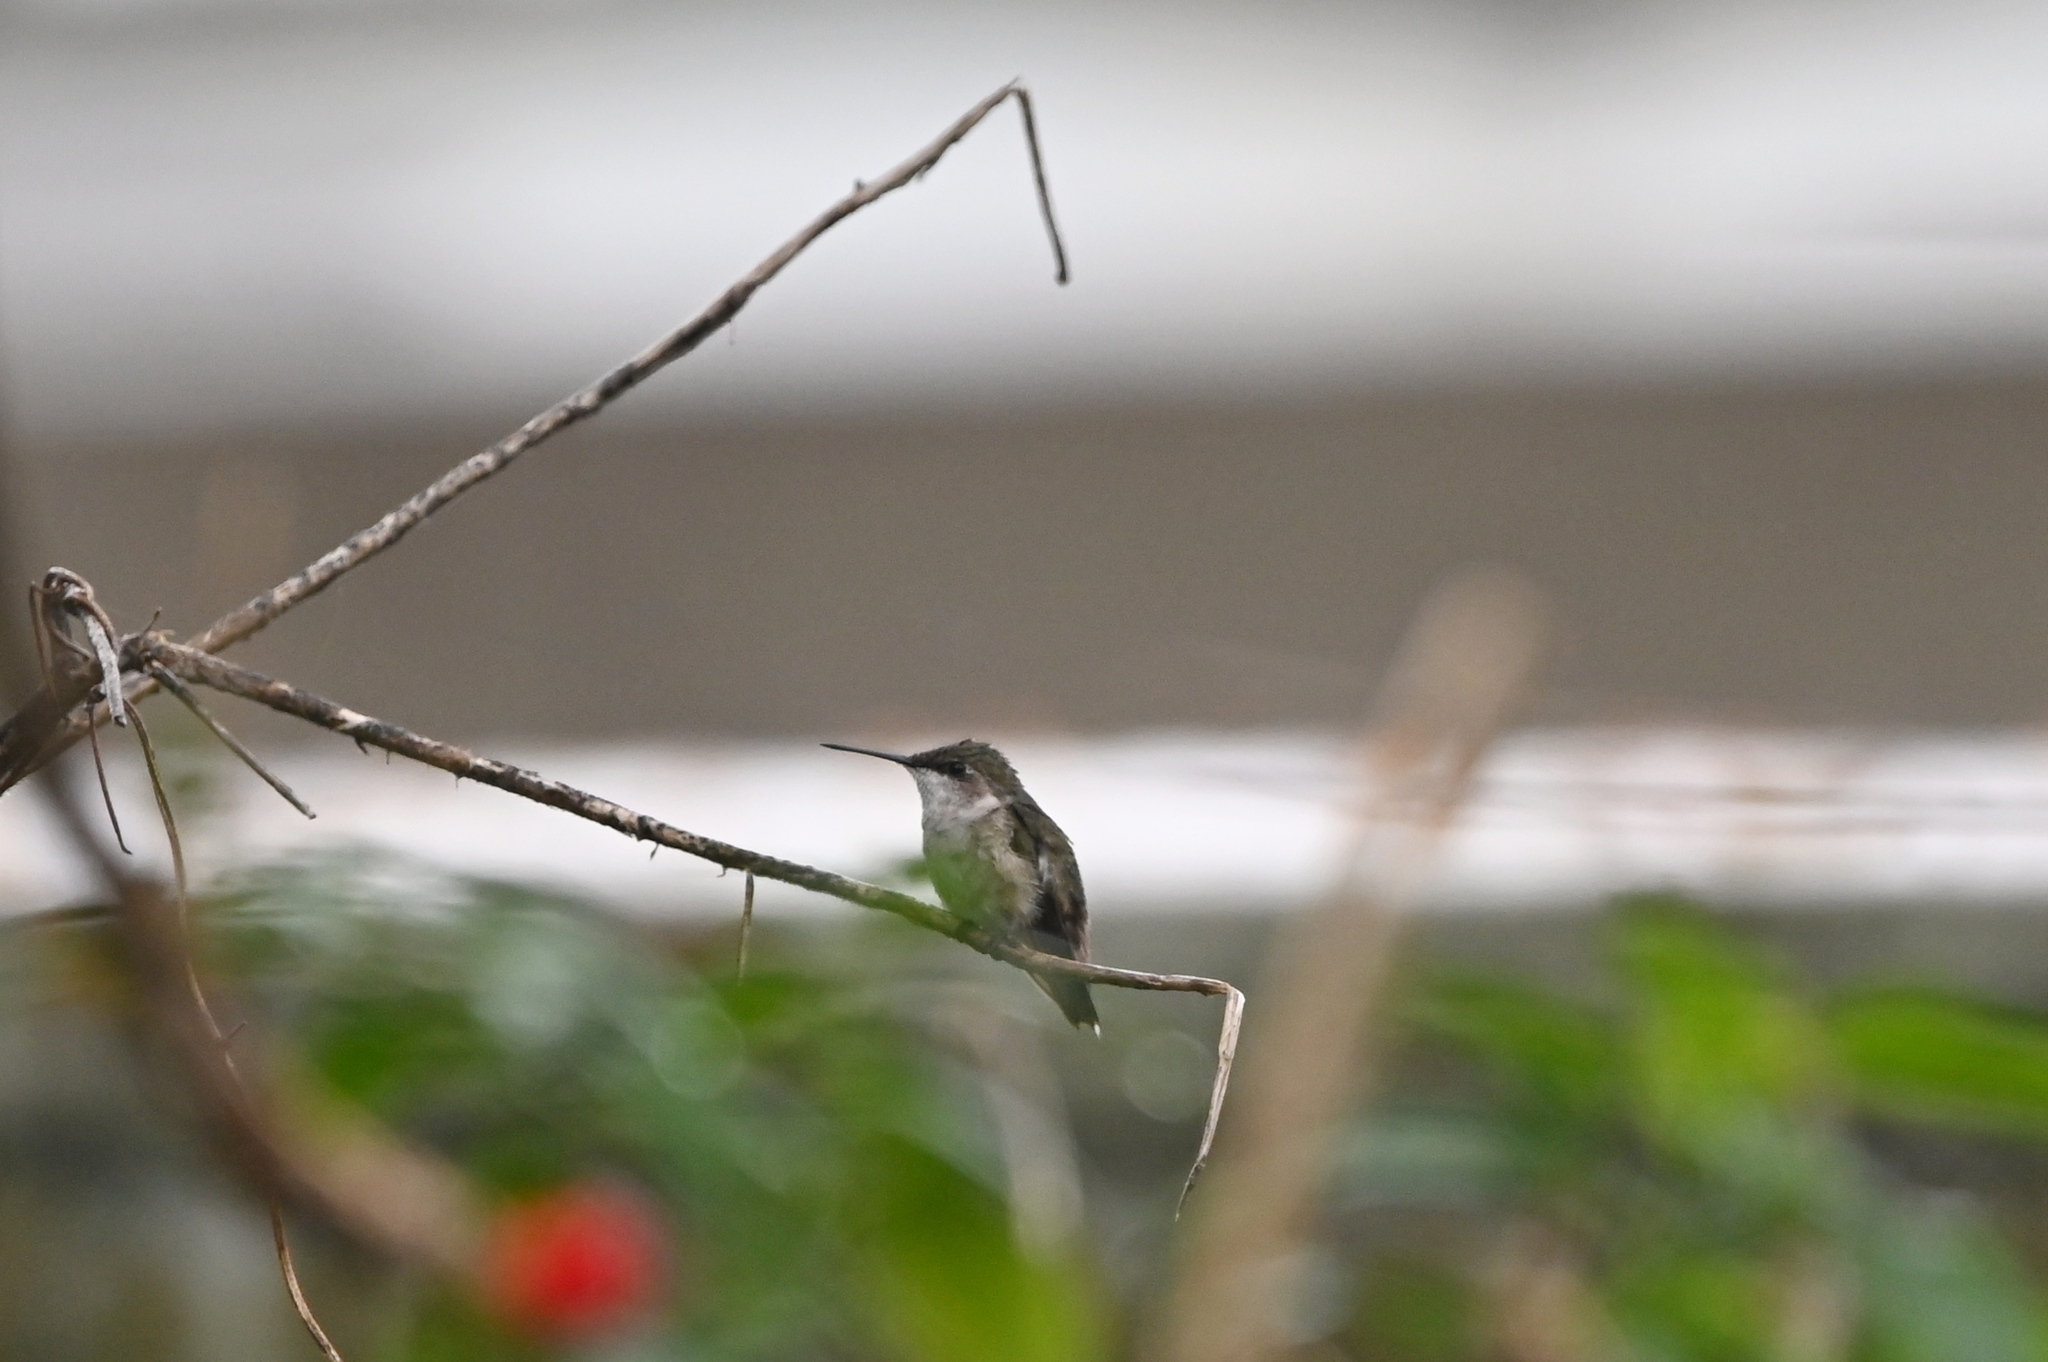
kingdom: Animalia
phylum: Chordata
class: Aves
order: Apodiformes
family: Trochilidae
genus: Archilochus
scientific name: Archilochus colubris
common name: Ruby-throated hummingbird
